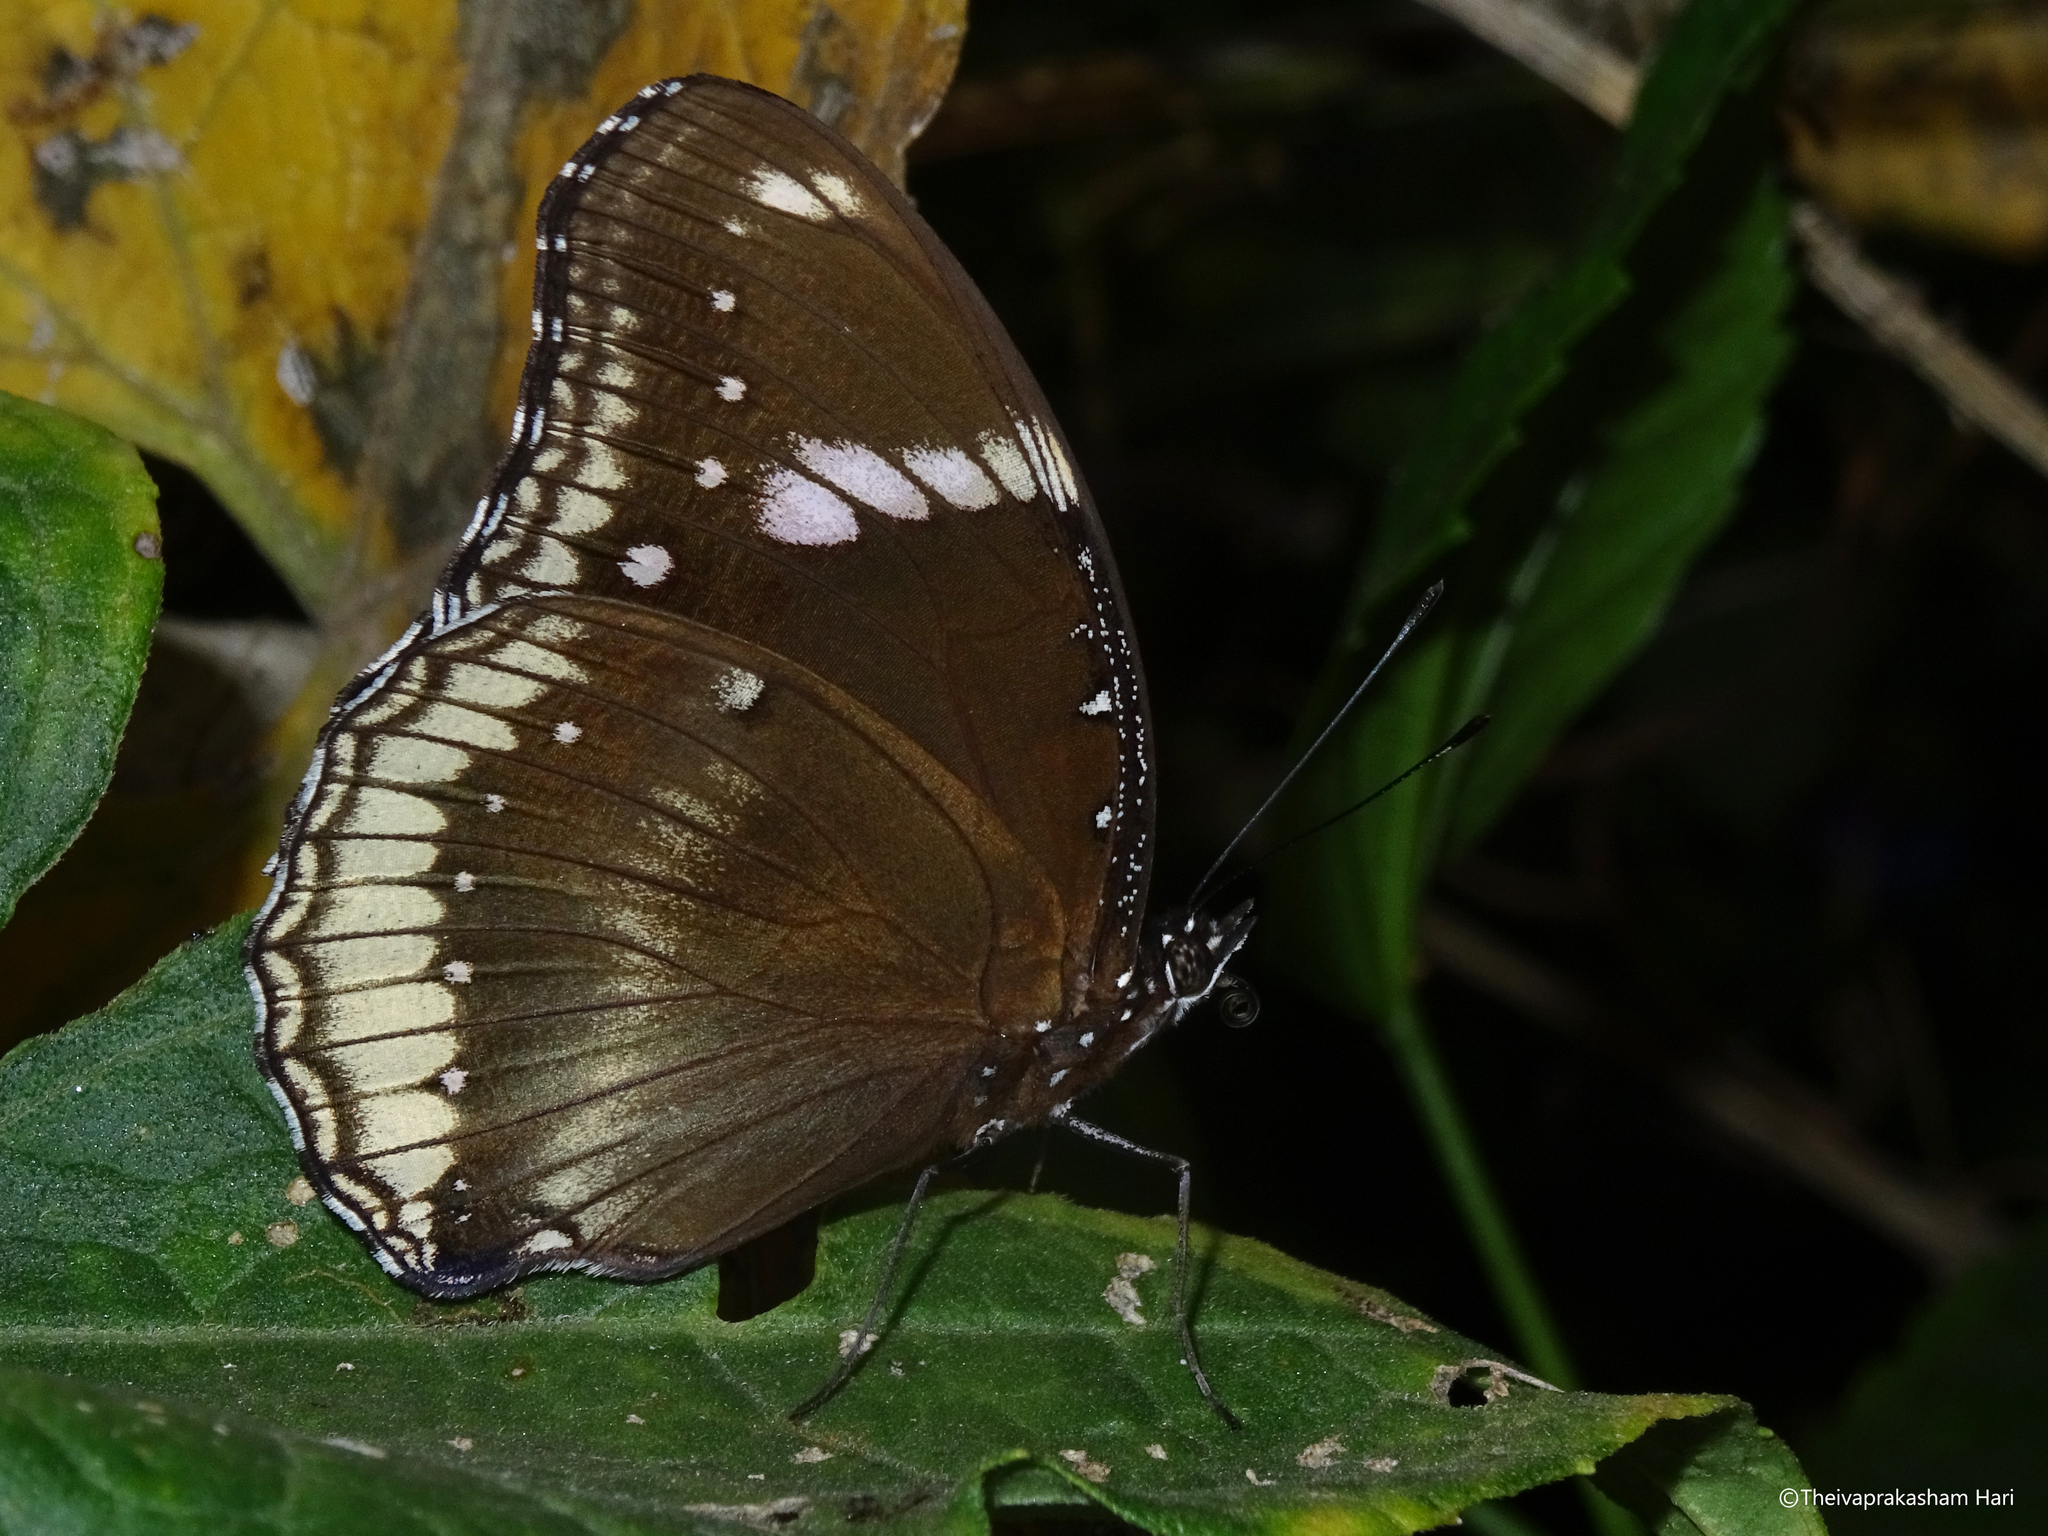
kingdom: Animalia
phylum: Arthropoda
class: Insecta
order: Lepidoptera
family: Nymphalidae
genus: Hypolimnas
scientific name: Hypolimnas bolina
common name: Great eggfly
